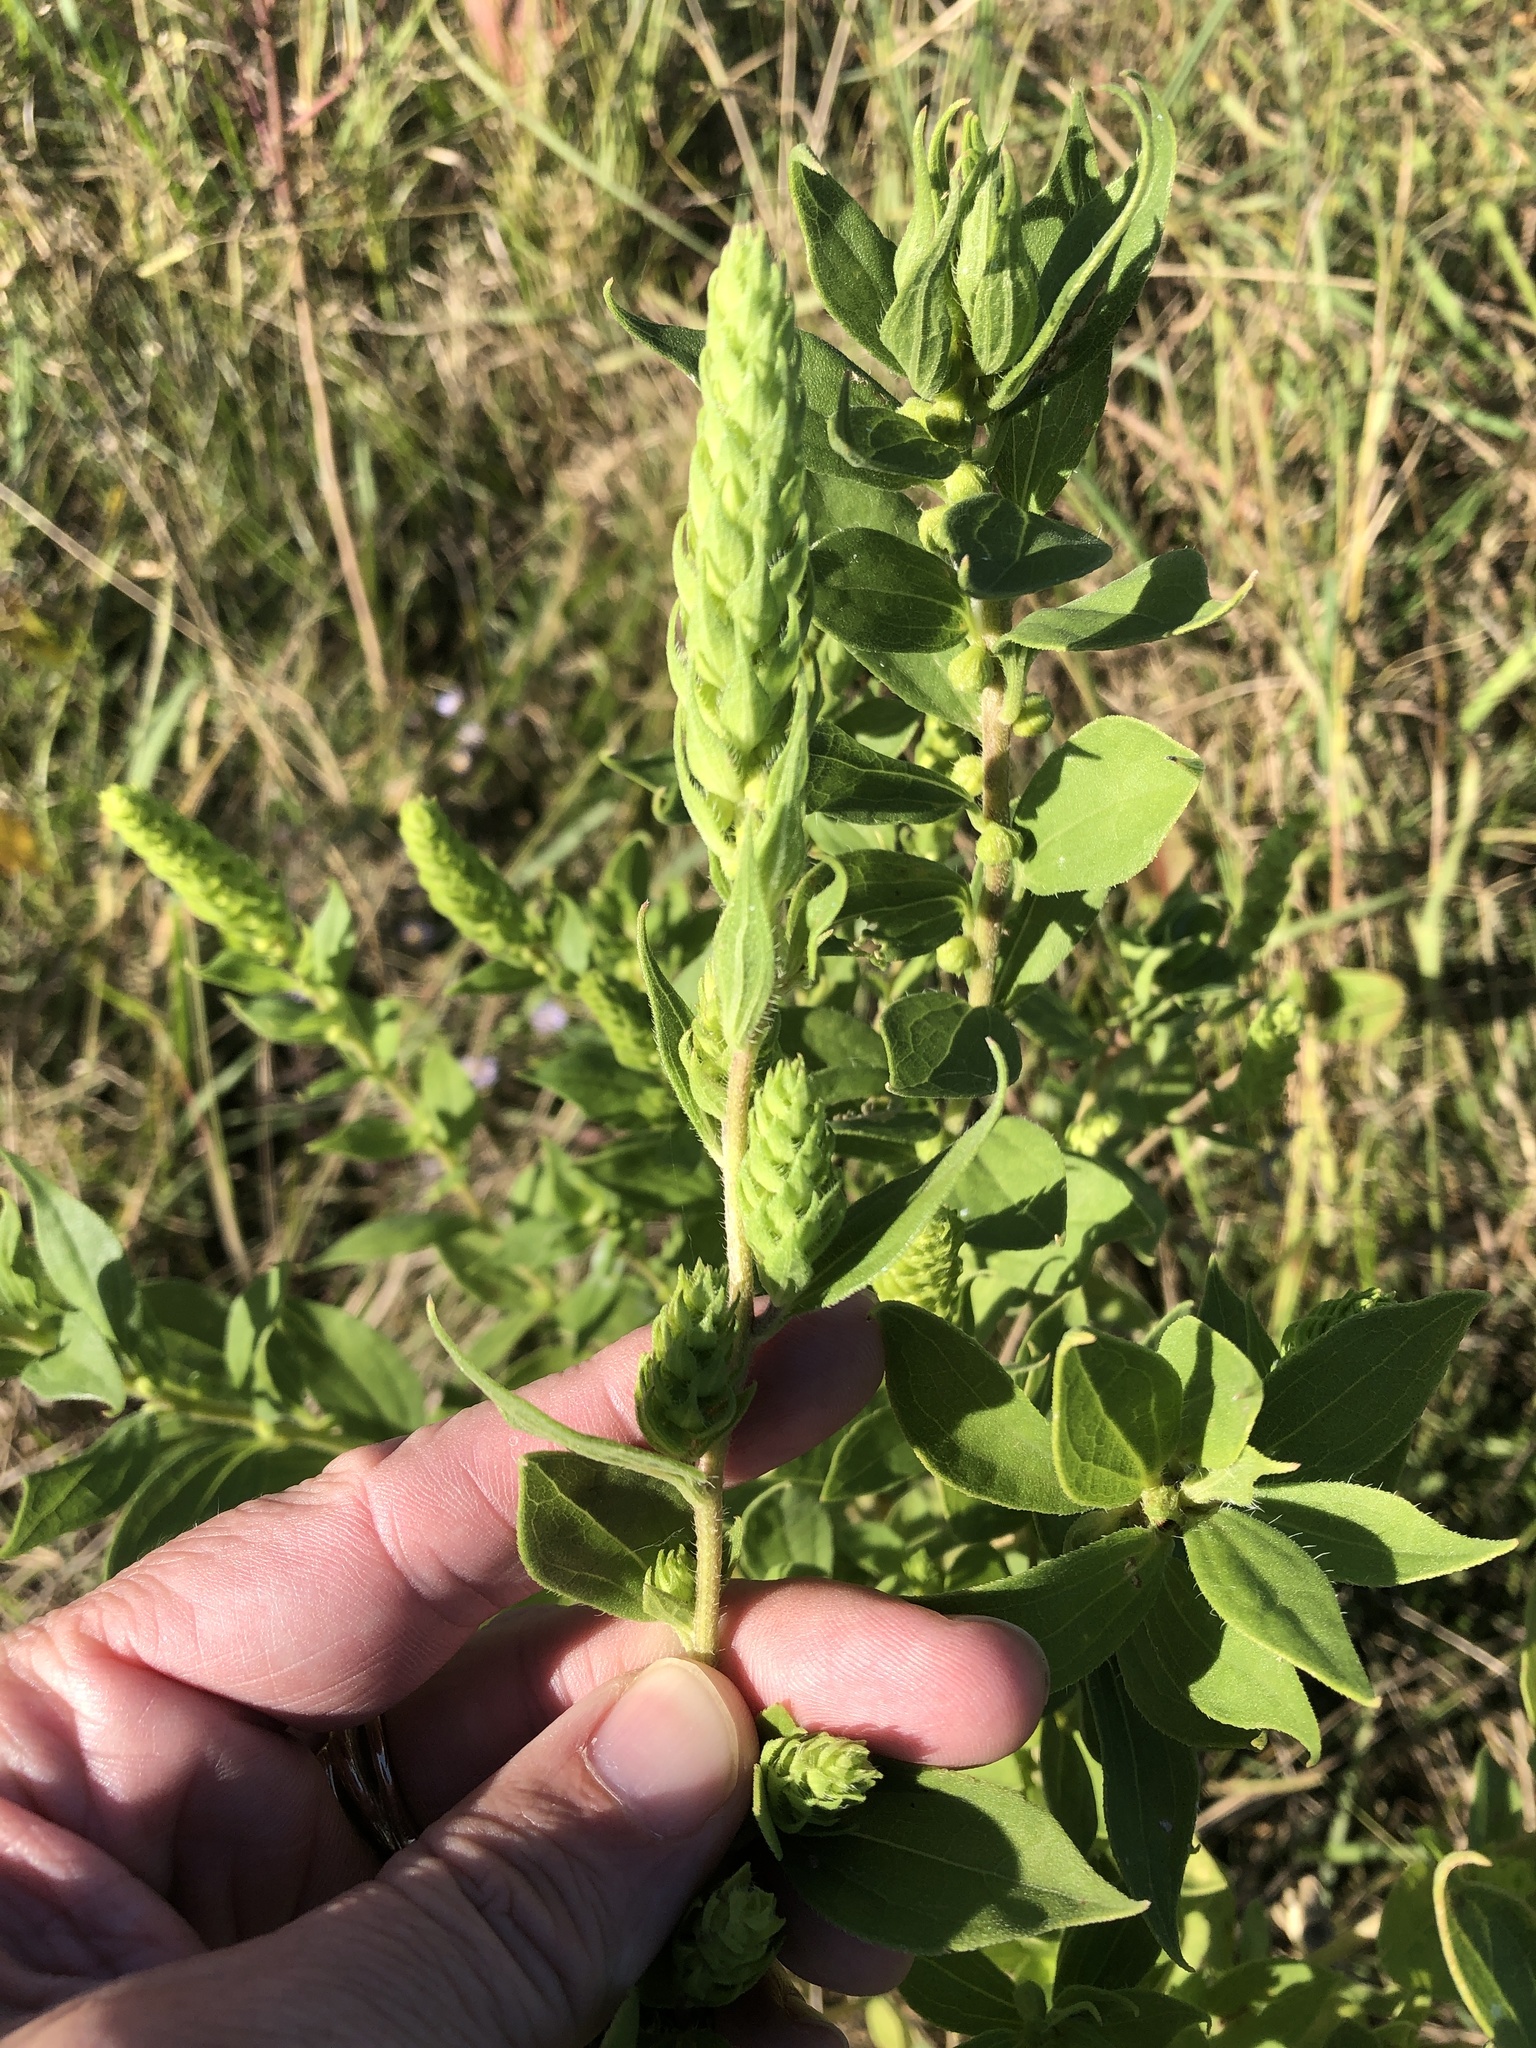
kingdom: Plantae
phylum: Tracheophyta
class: Magnoliopsida
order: Asterales
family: Asteraceae
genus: Iva
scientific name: Iva annua
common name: Marsh-elder
